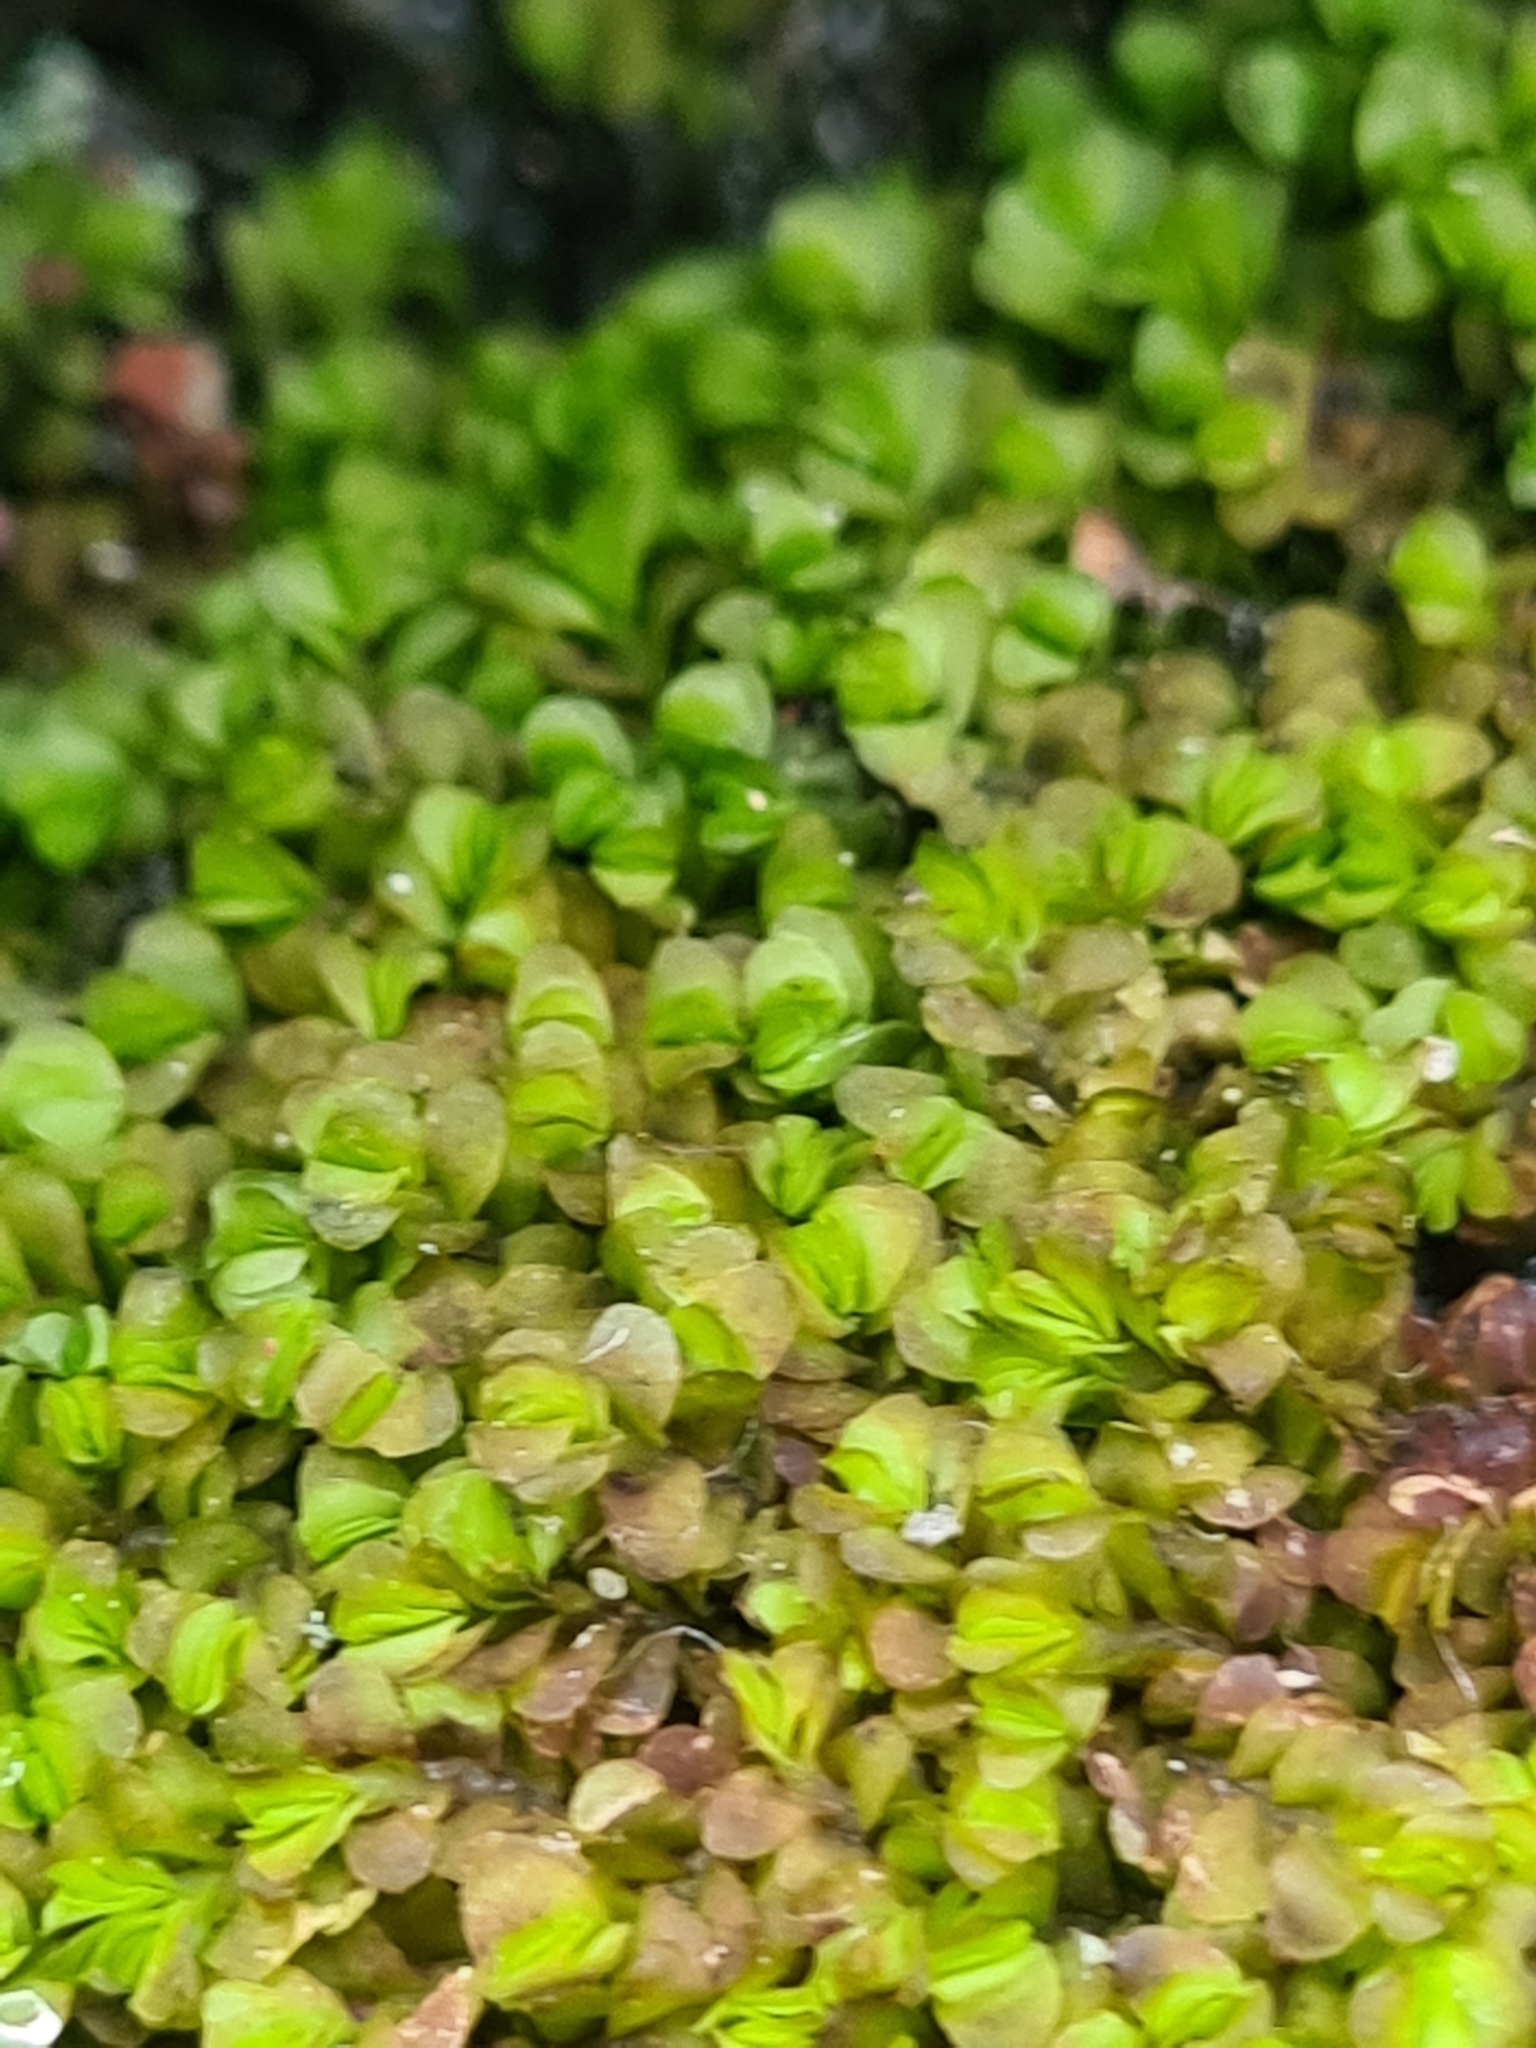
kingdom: Plantae
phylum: Marchantiophyta
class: Jungermanniopsida
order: Jungermanniales
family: Myliaceae
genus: Mylia
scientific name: Mylia taylorii
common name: Taylor s flapwort
